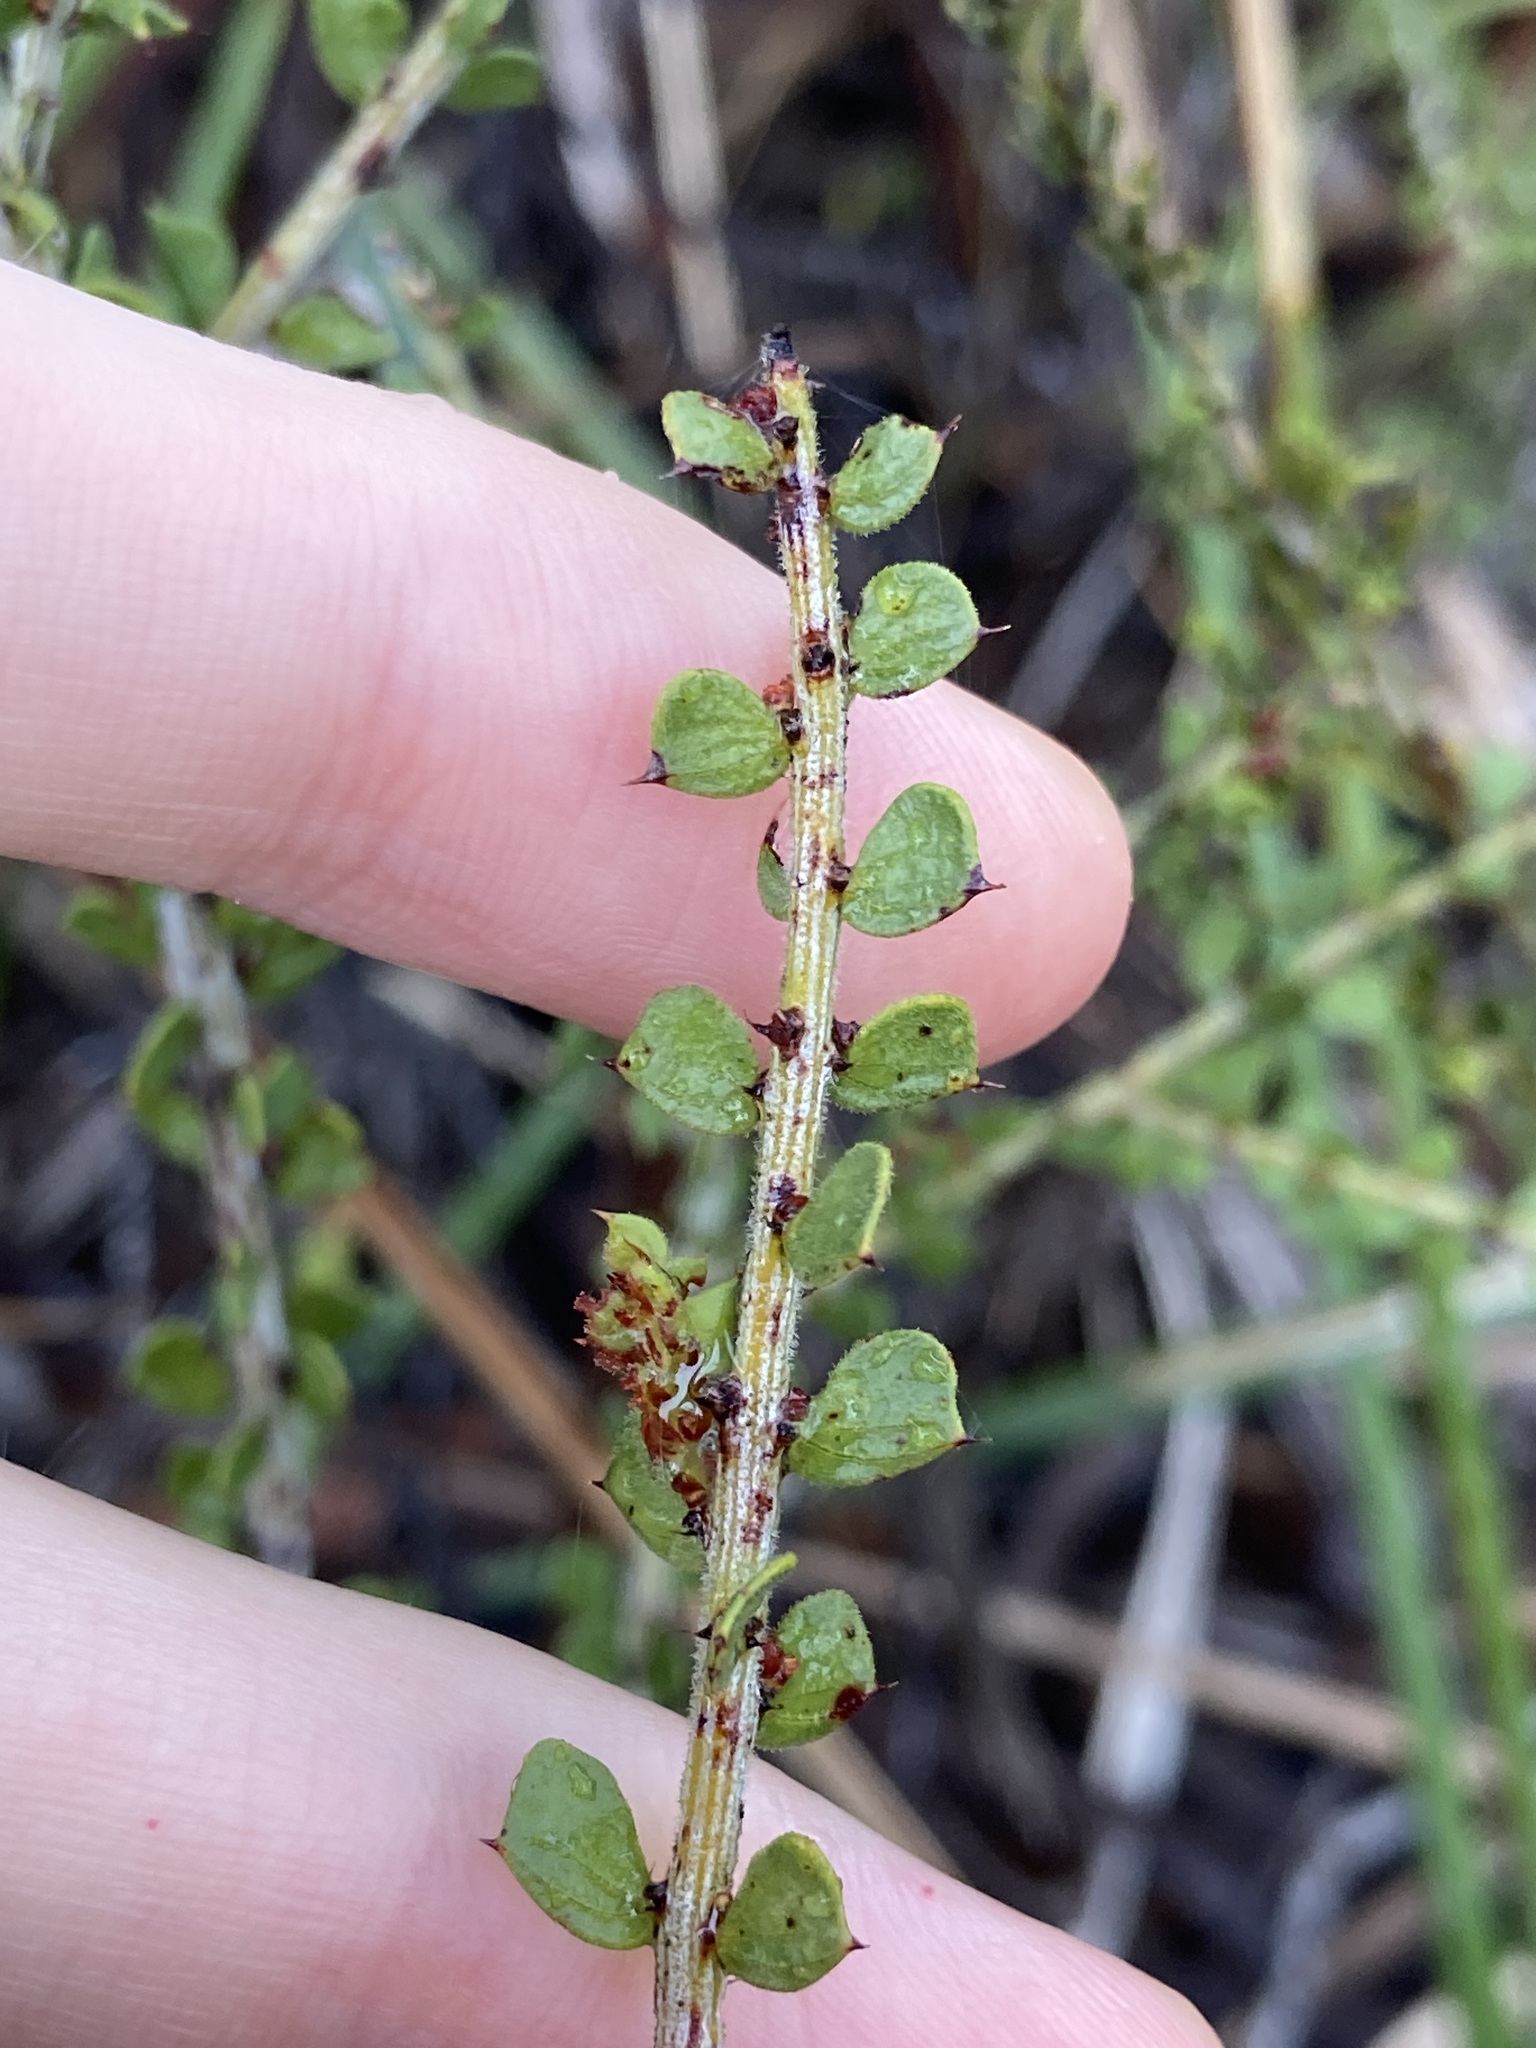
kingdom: Plantae
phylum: Tracheophyta
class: Magnoliopsida
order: Fabales
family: Fabaceae
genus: Acacia
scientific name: Acacia pravifolia
